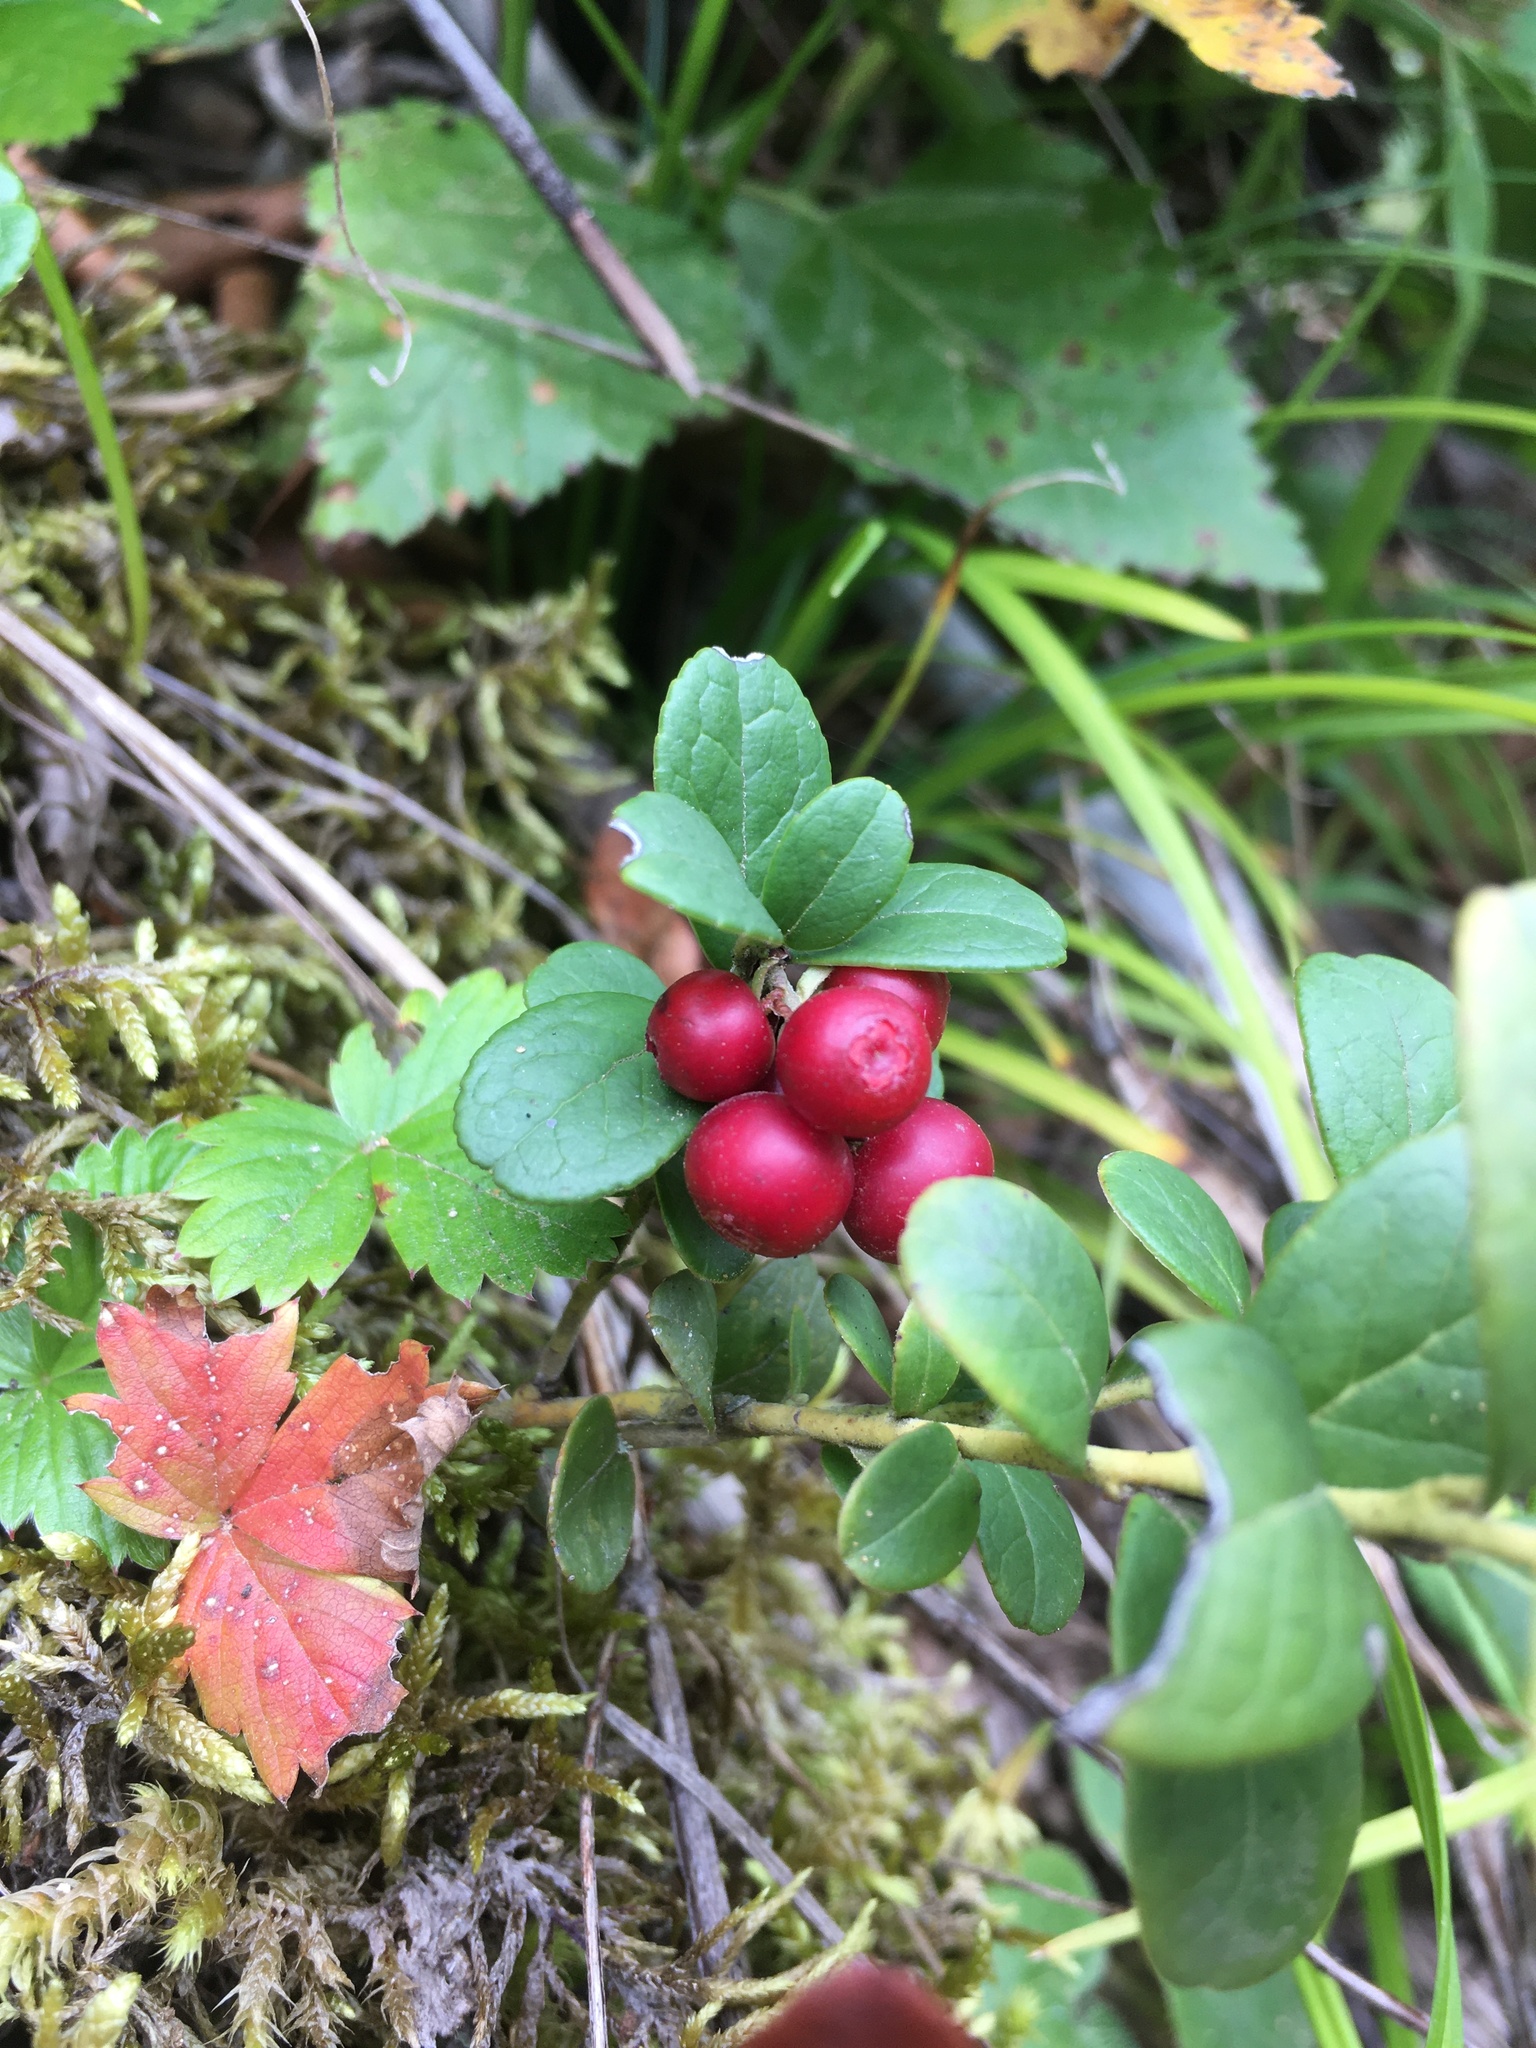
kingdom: Plantae
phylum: Tracheophyta
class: Magnoliopsida
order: Ericales
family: Ericaceae
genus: Vaccinium
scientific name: Vaccinium vitis-idaea
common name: Cowberry
